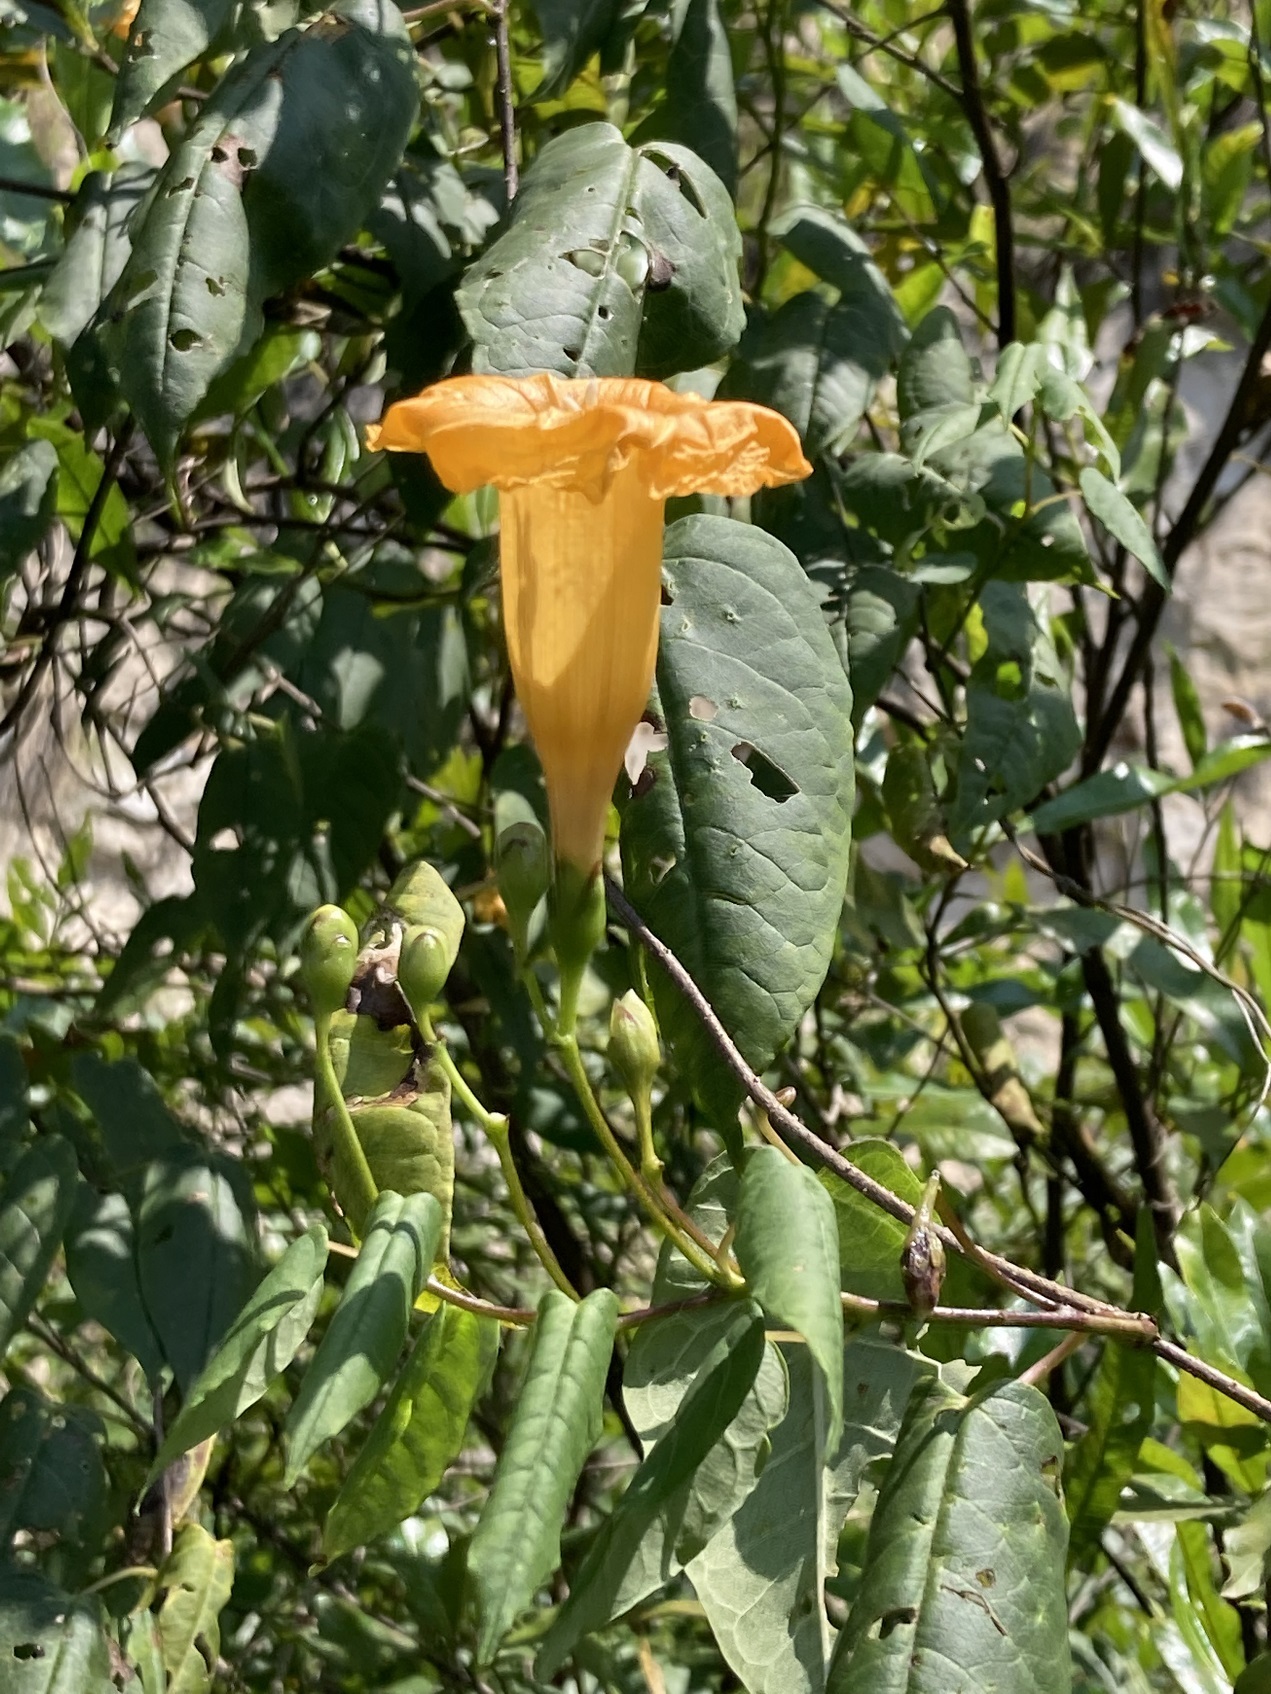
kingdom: Plantae
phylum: Tracheophyta
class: Magnoliopsida
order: Solanales
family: Convolvulaceae
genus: Ipomoea
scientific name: Ipomoea aurantiaca
